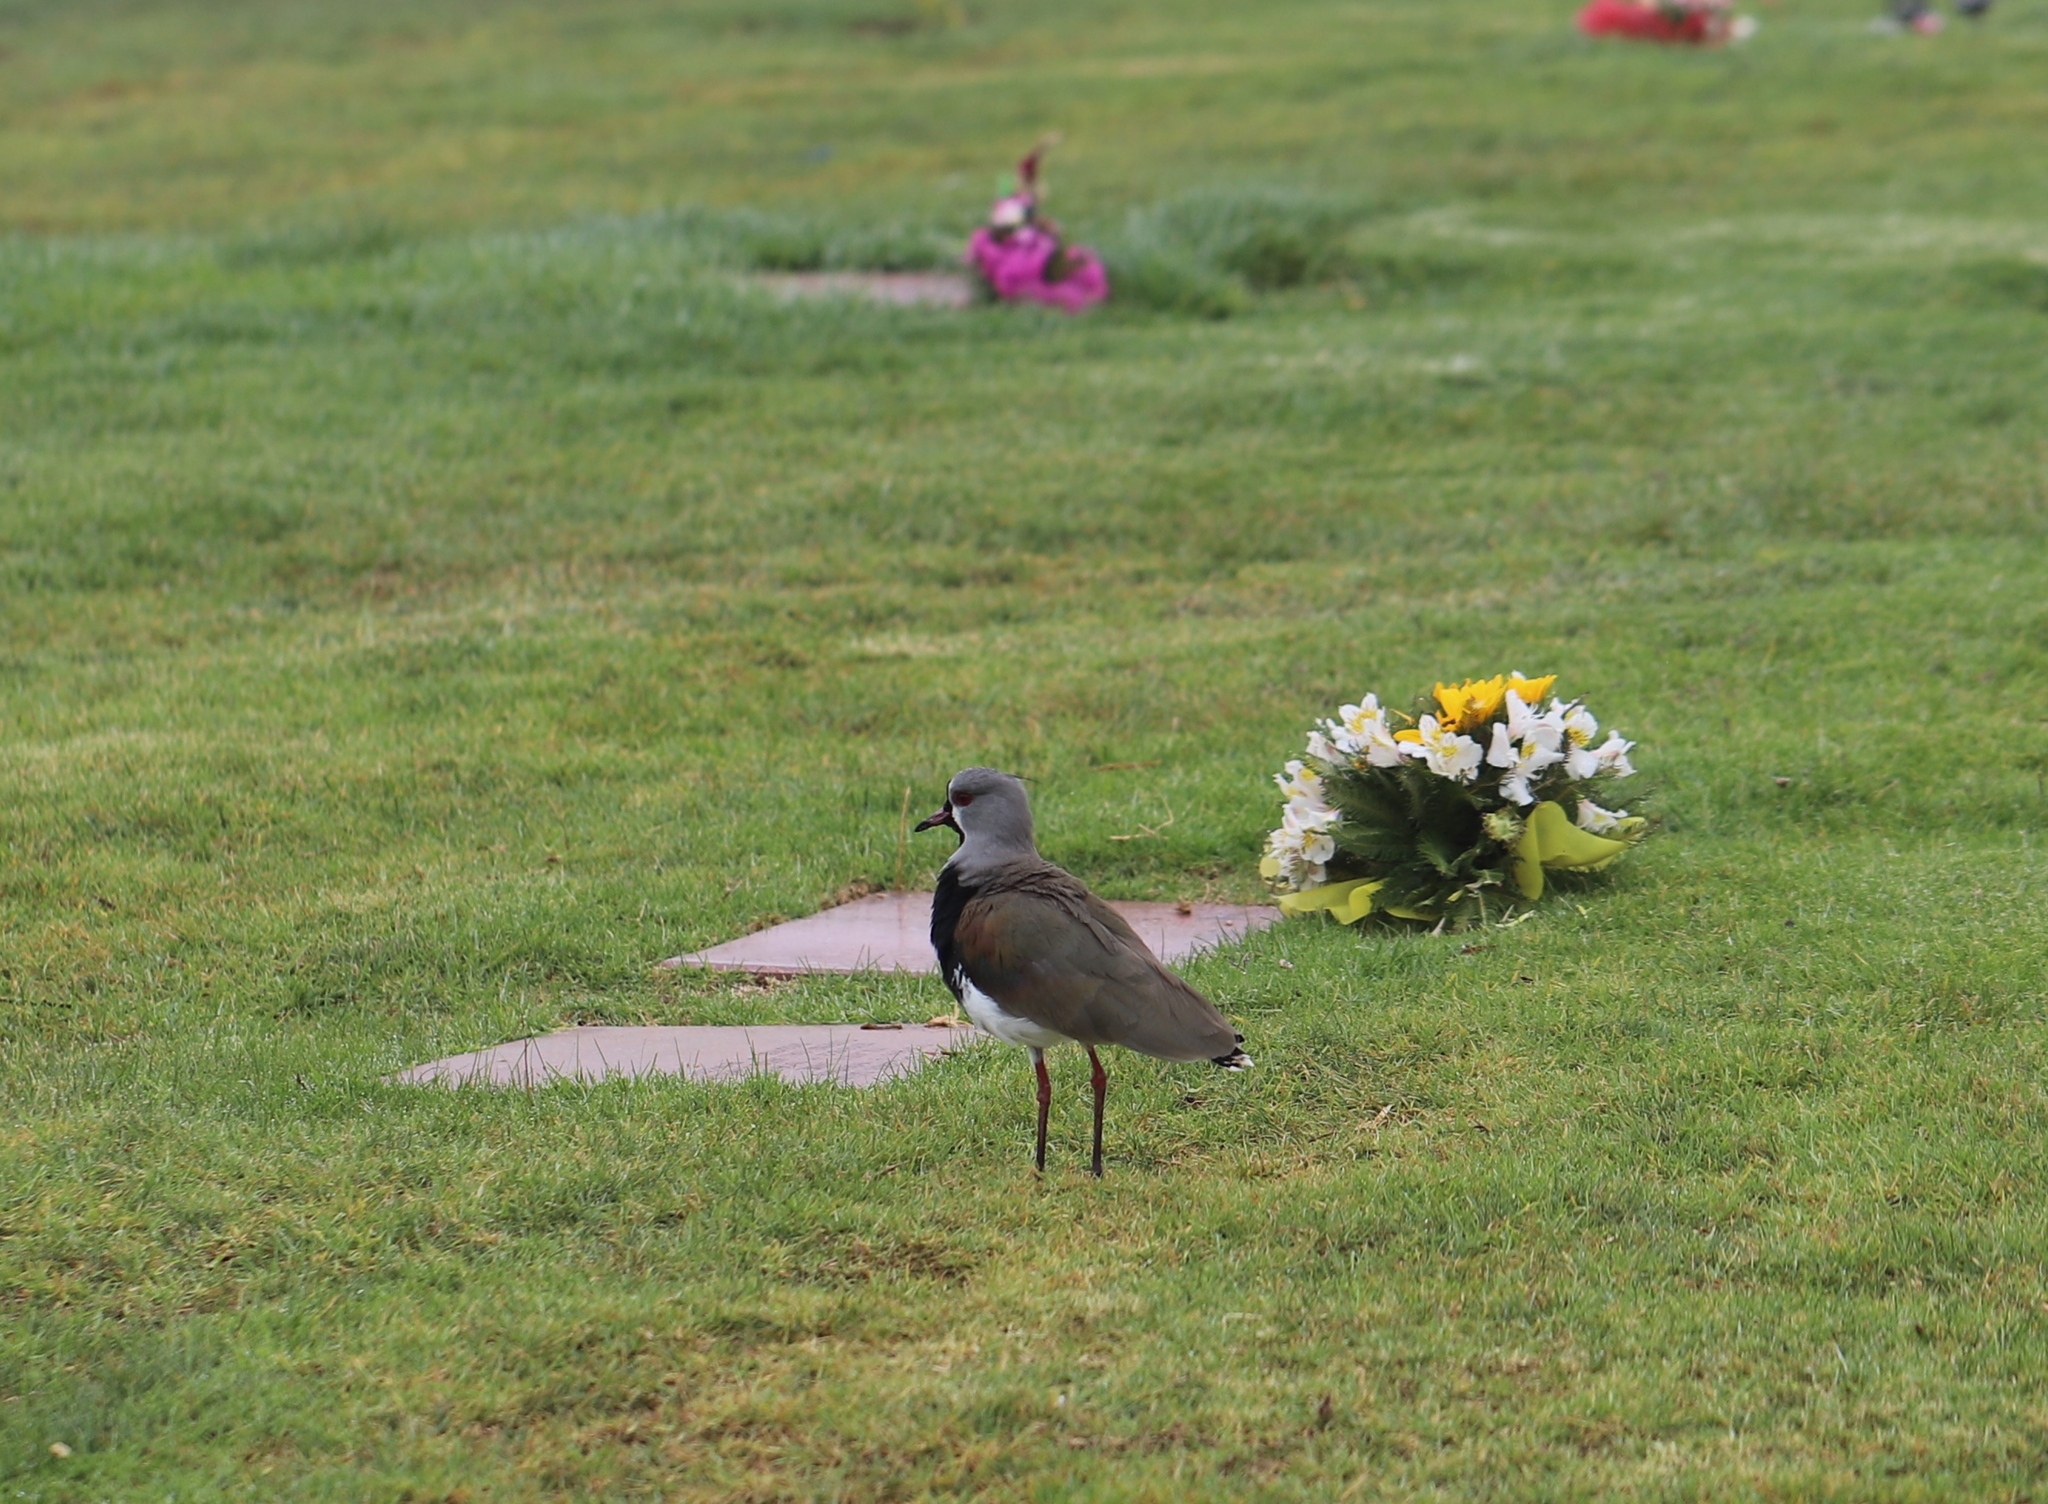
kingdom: Animalia
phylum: Chordata
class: Aves
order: Charadriiformes
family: Charadriidae
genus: Vanellus
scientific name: Vanellus chilensis
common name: Southern lapwing
